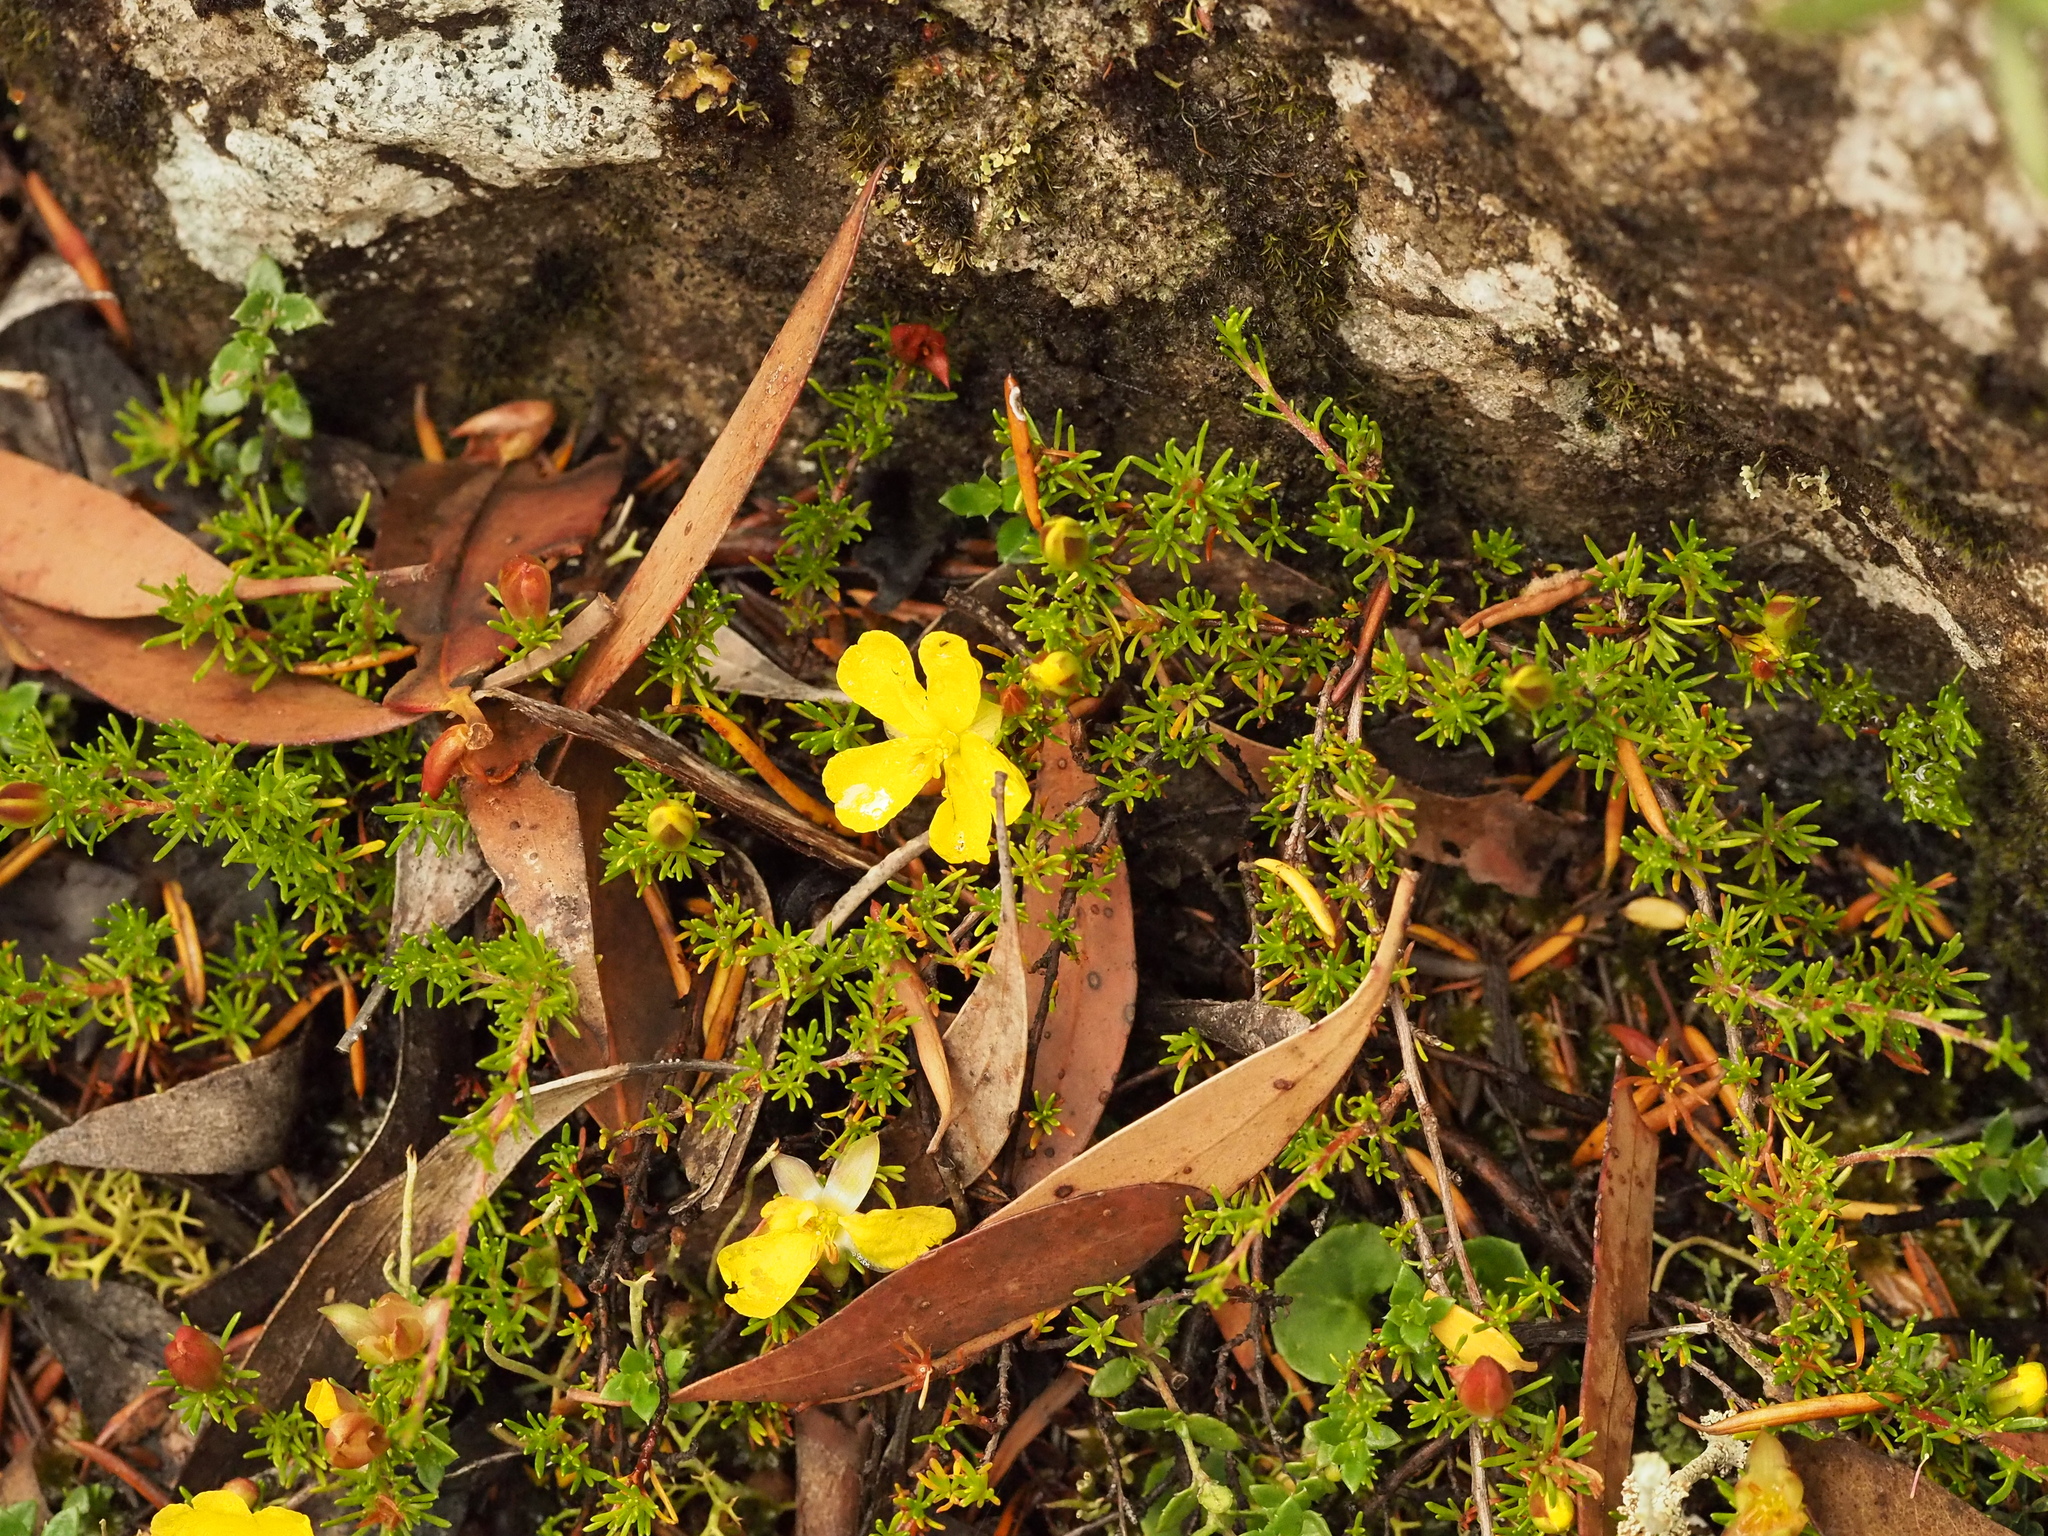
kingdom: Plantae
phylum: Tracheophyta
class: Magnoliopsida
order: Dilleniales
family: Dilleniaceae
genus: Hibbertia
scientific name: Hibbertia procumbens
